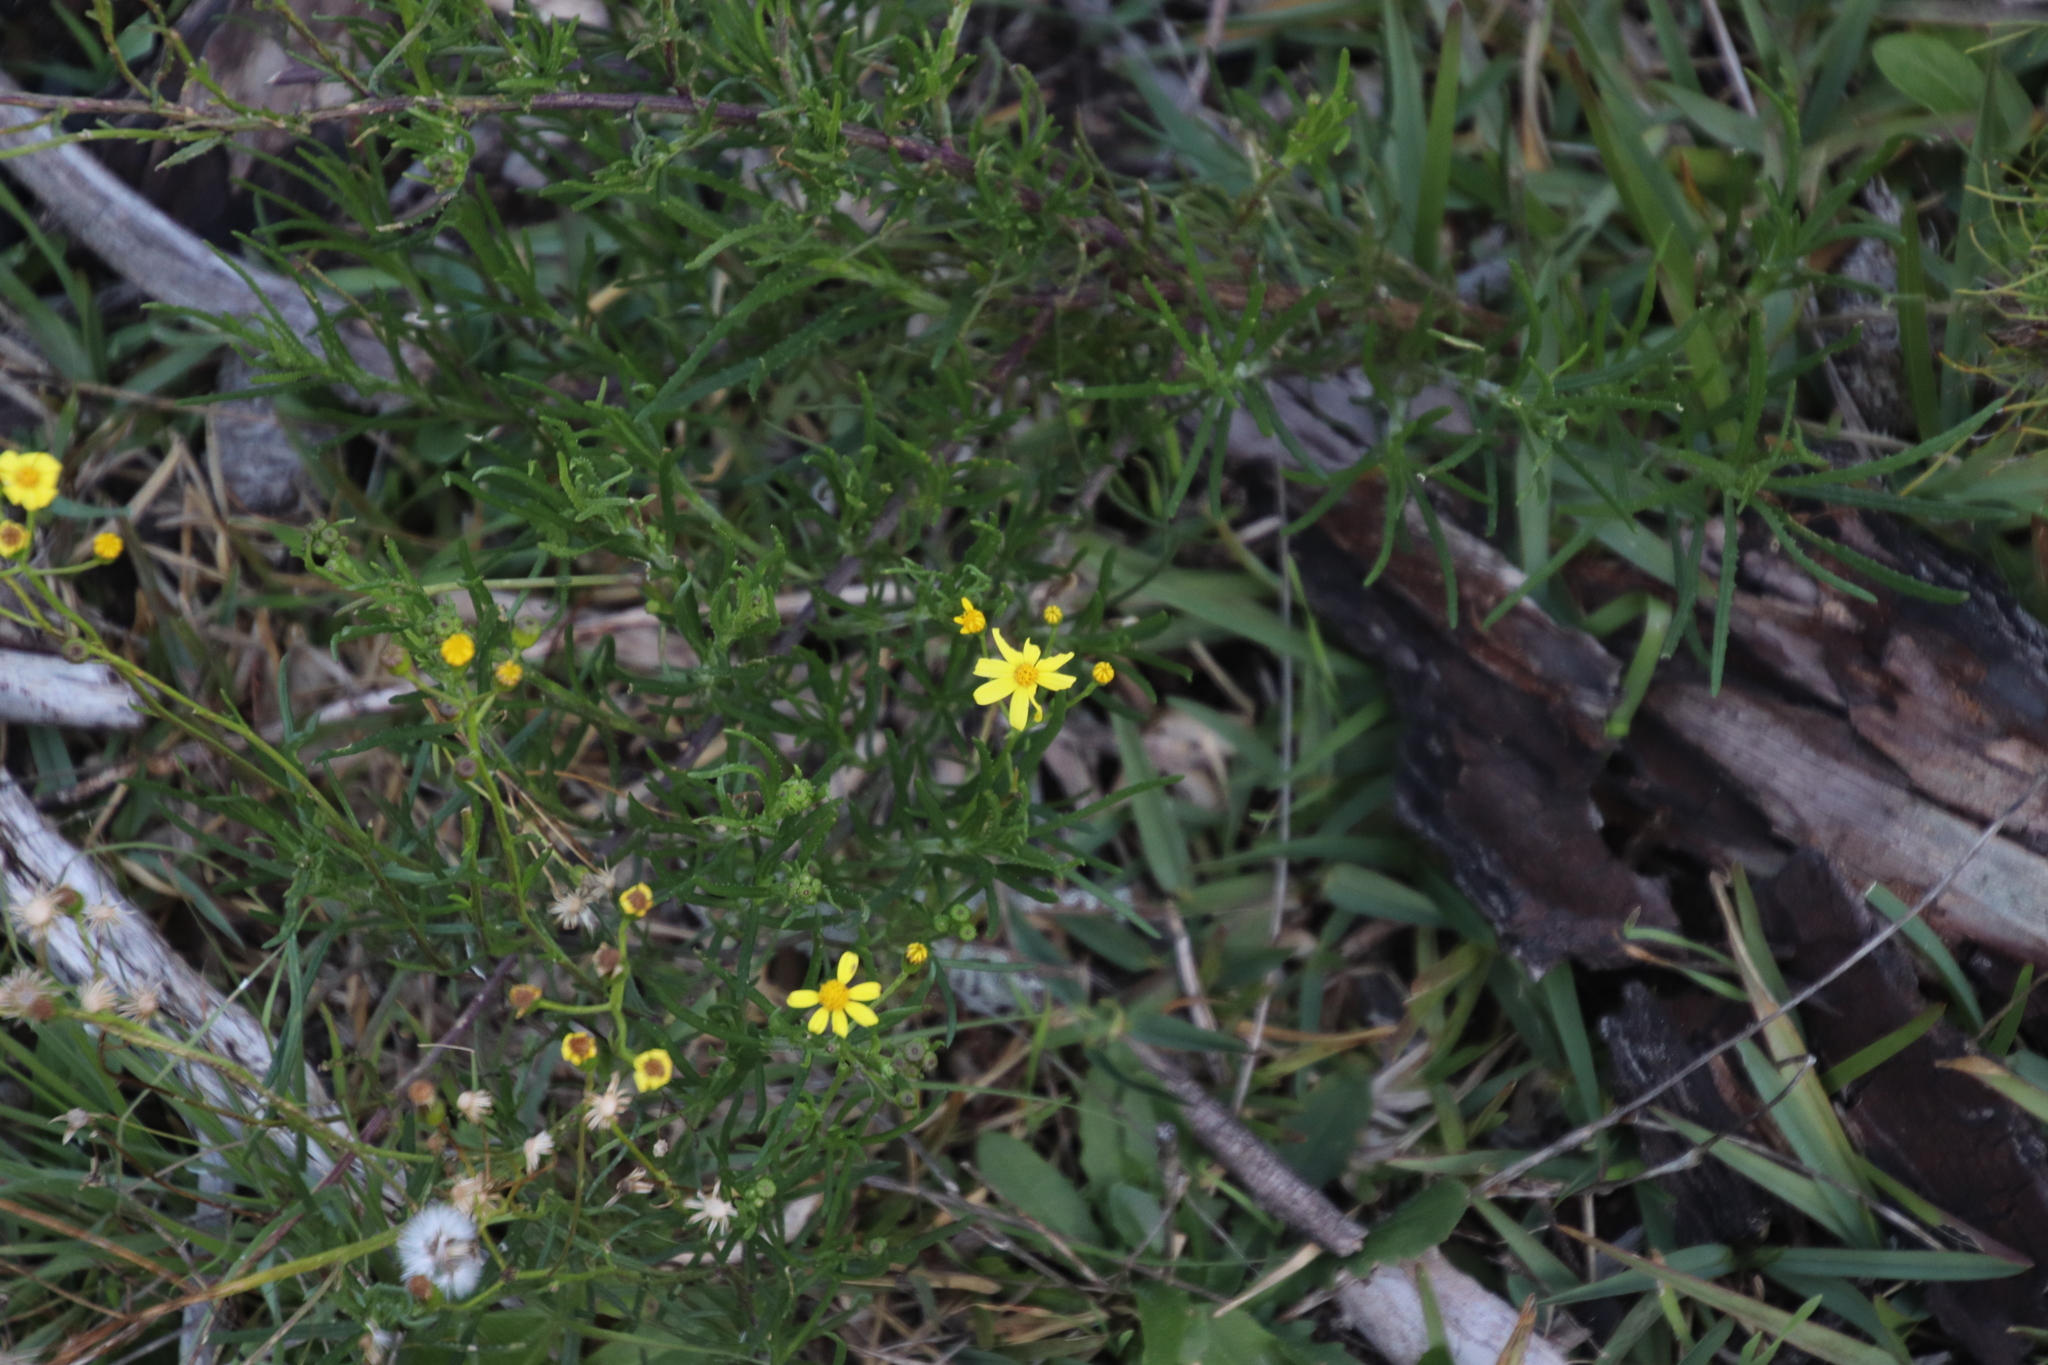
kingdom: Plantae
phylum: Tracheophyta
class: Magnoliopsida
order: Asterales
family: Asteraceae
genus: Senecio
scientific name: Senecio burchellii
